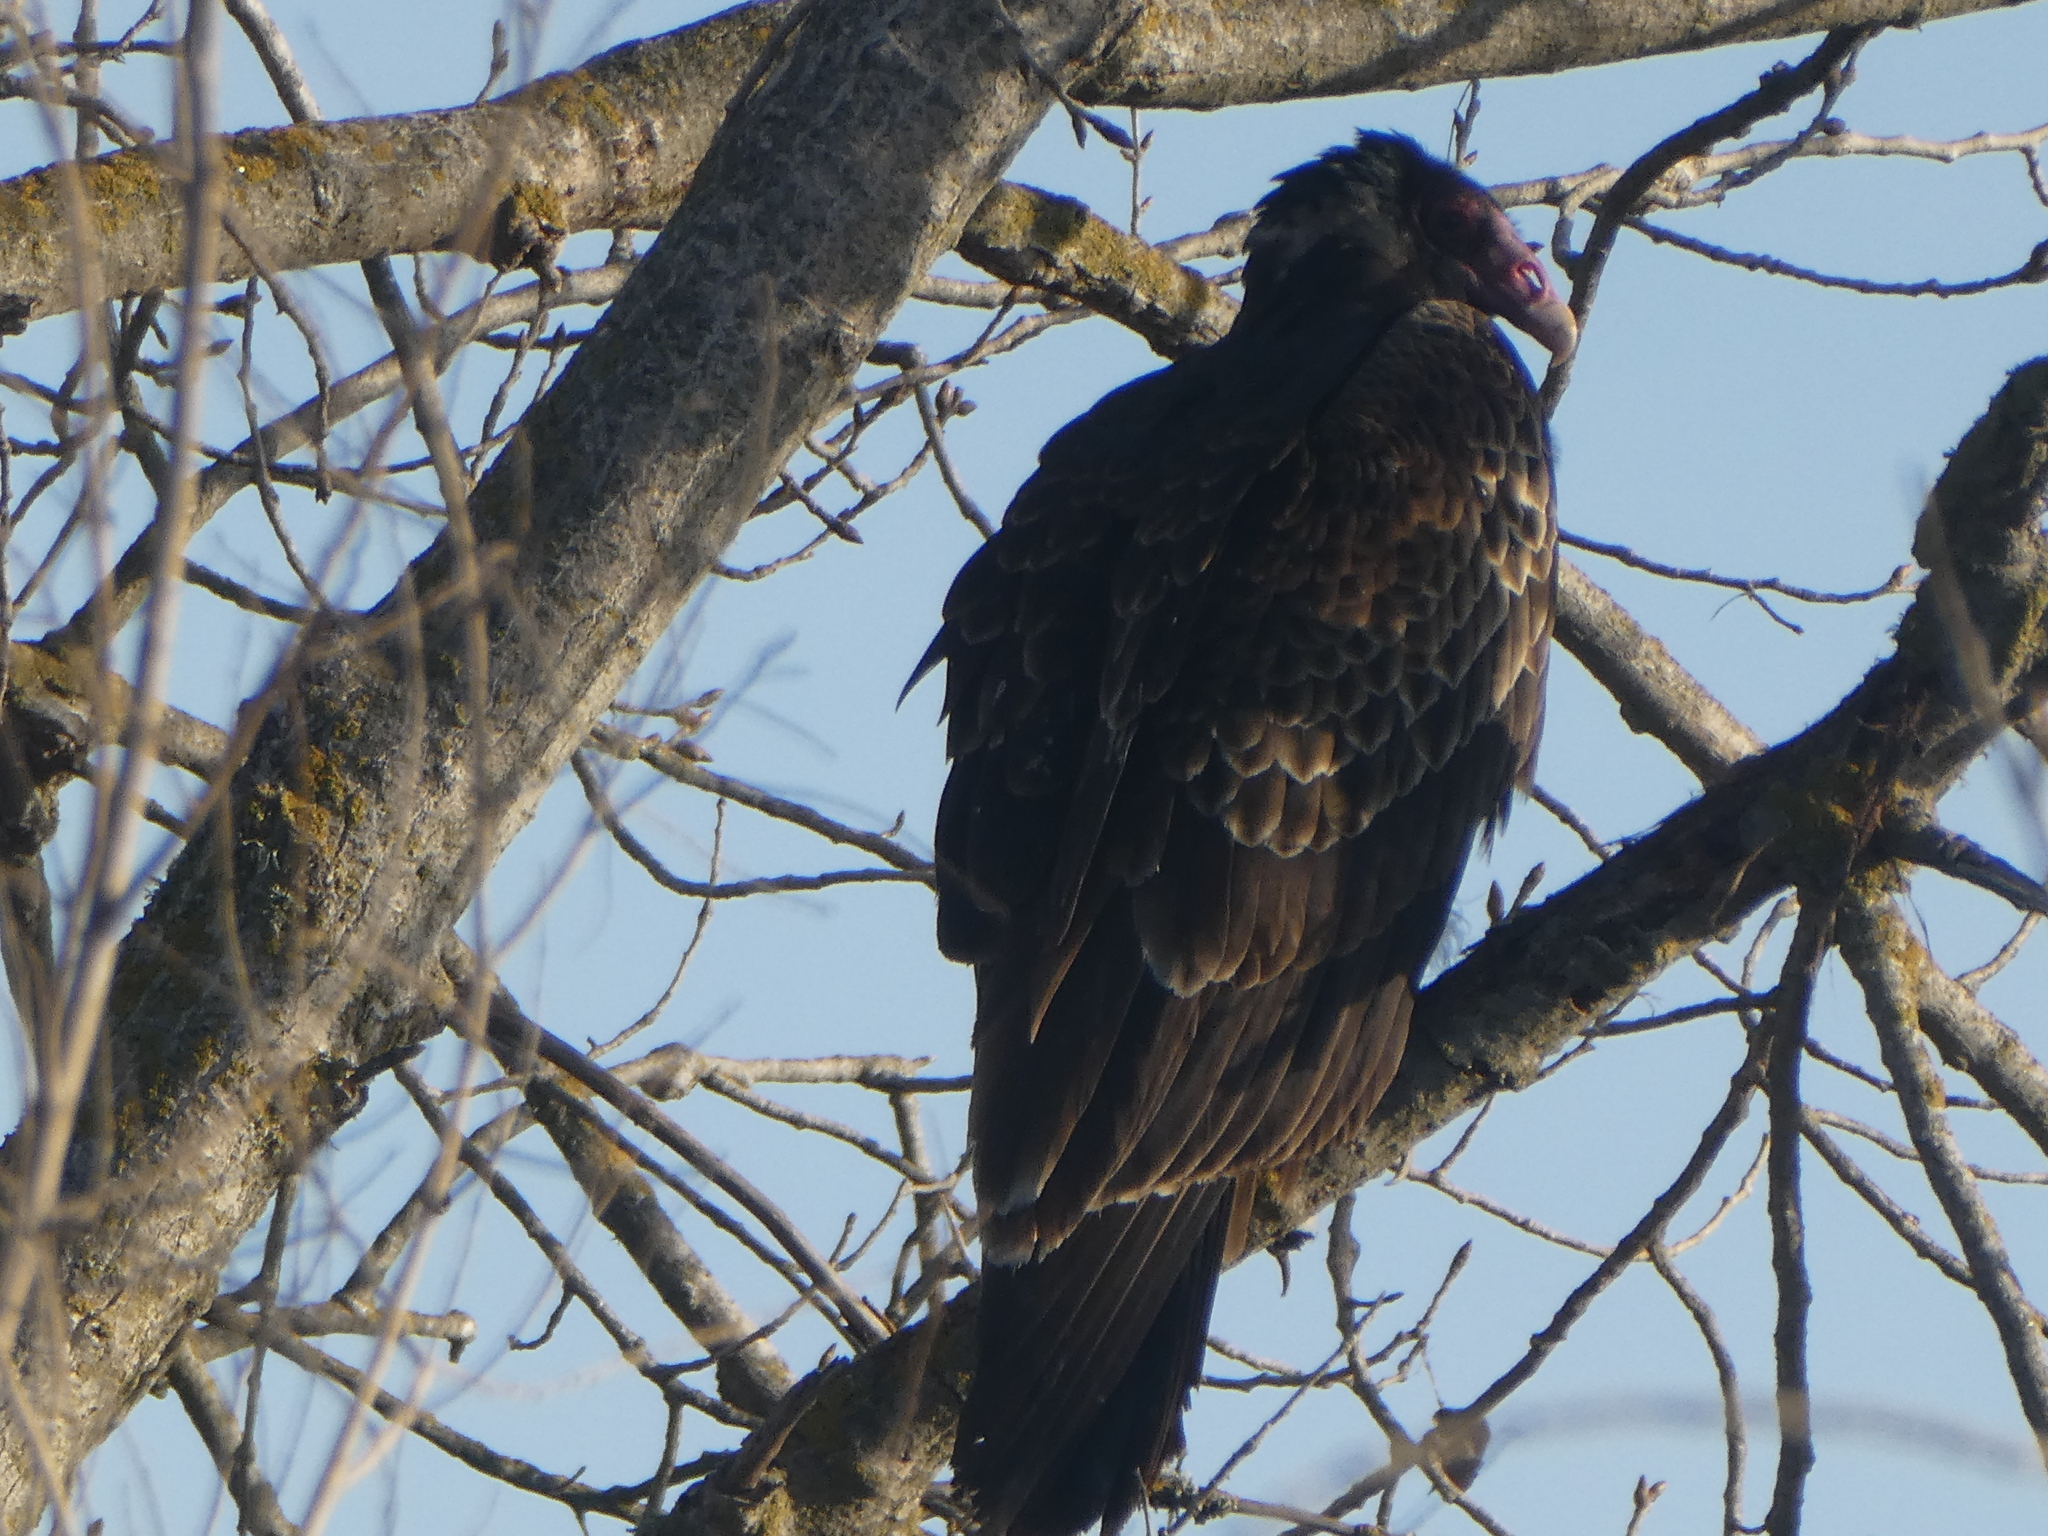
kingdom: Animalia
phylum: Chordata
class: Aves
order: Accipitriformes
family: Cathartidae
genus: Cathartes
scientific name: Cathartes aura
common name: Turkey vulture
